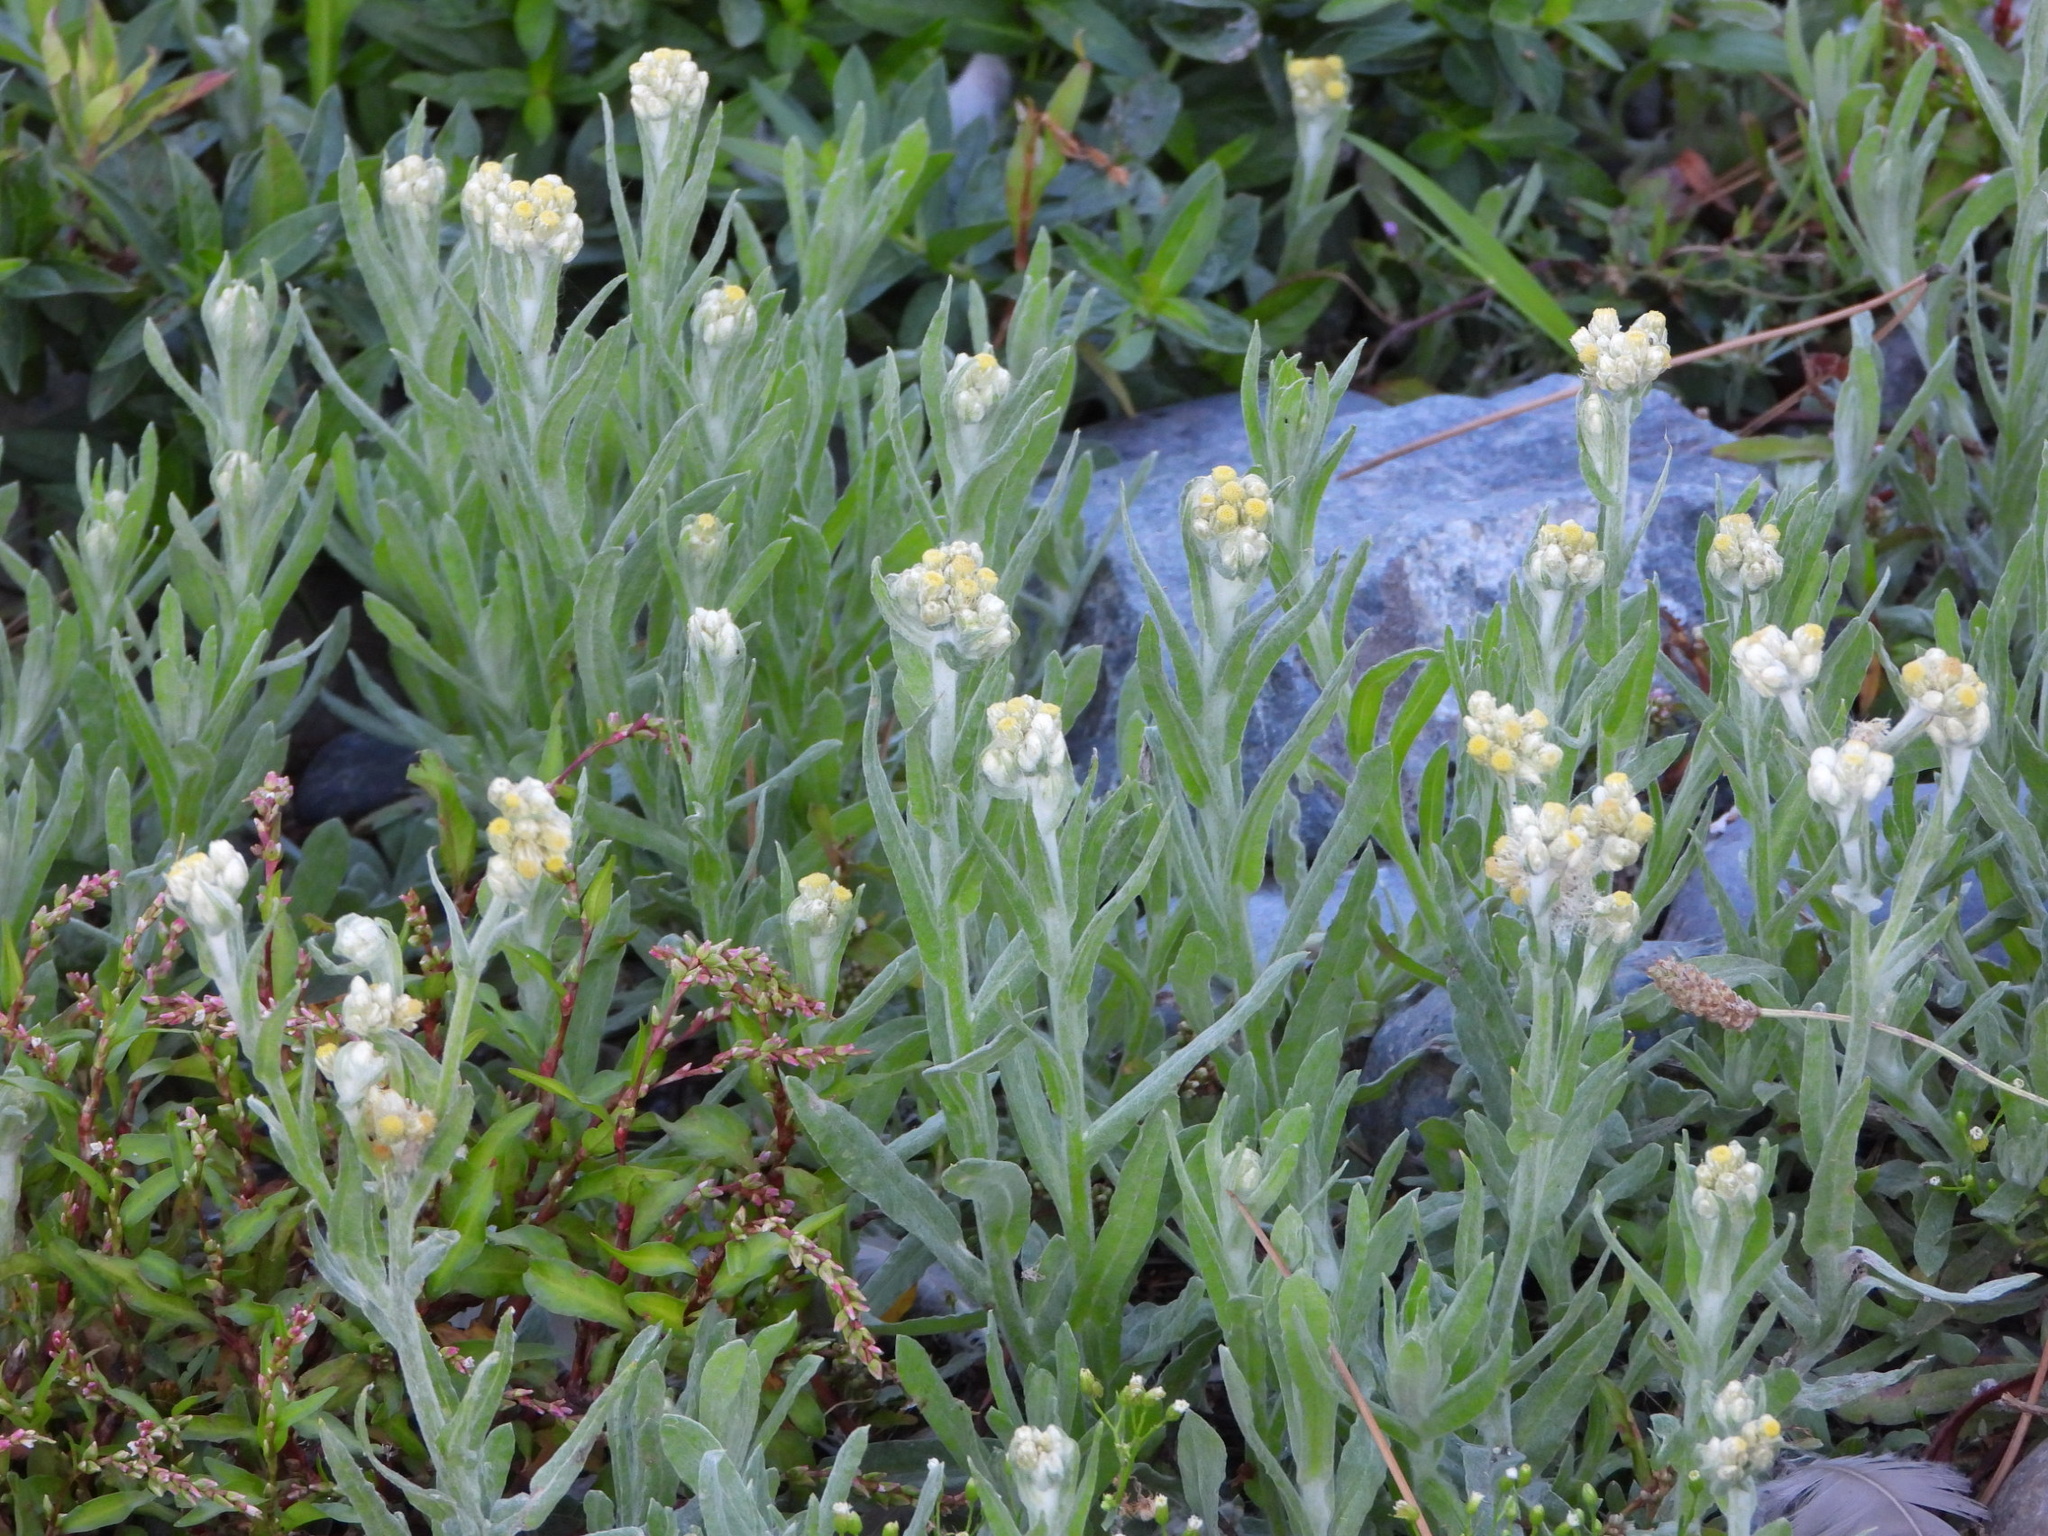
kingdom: Plantae
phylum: Tracheophyta
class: Magnoliopsida
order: Asterales
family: Asteraceae
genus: Pseudognaphalium
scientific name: Pseudognaphalium stramineum
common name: Cotton-batting-plant
